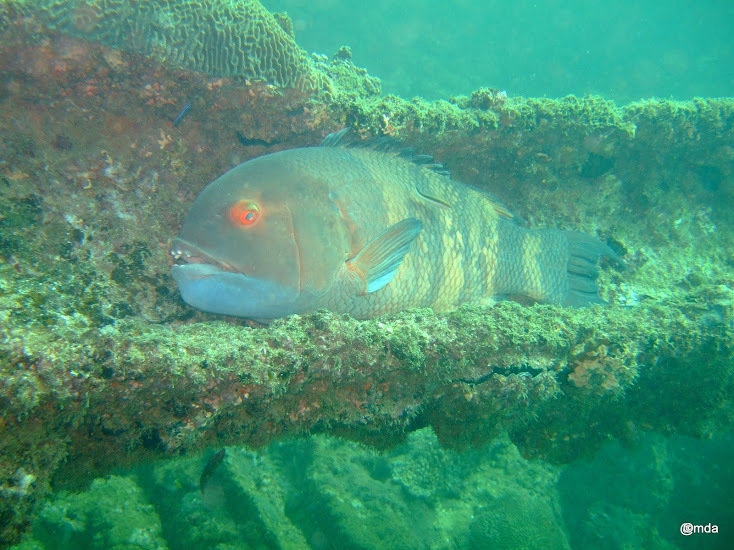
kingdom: Animalia
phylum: Chordata
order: Perciformes
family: Labridae
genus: Bodianus
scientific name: Bodianus macrognathos
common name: Giant hogfish
